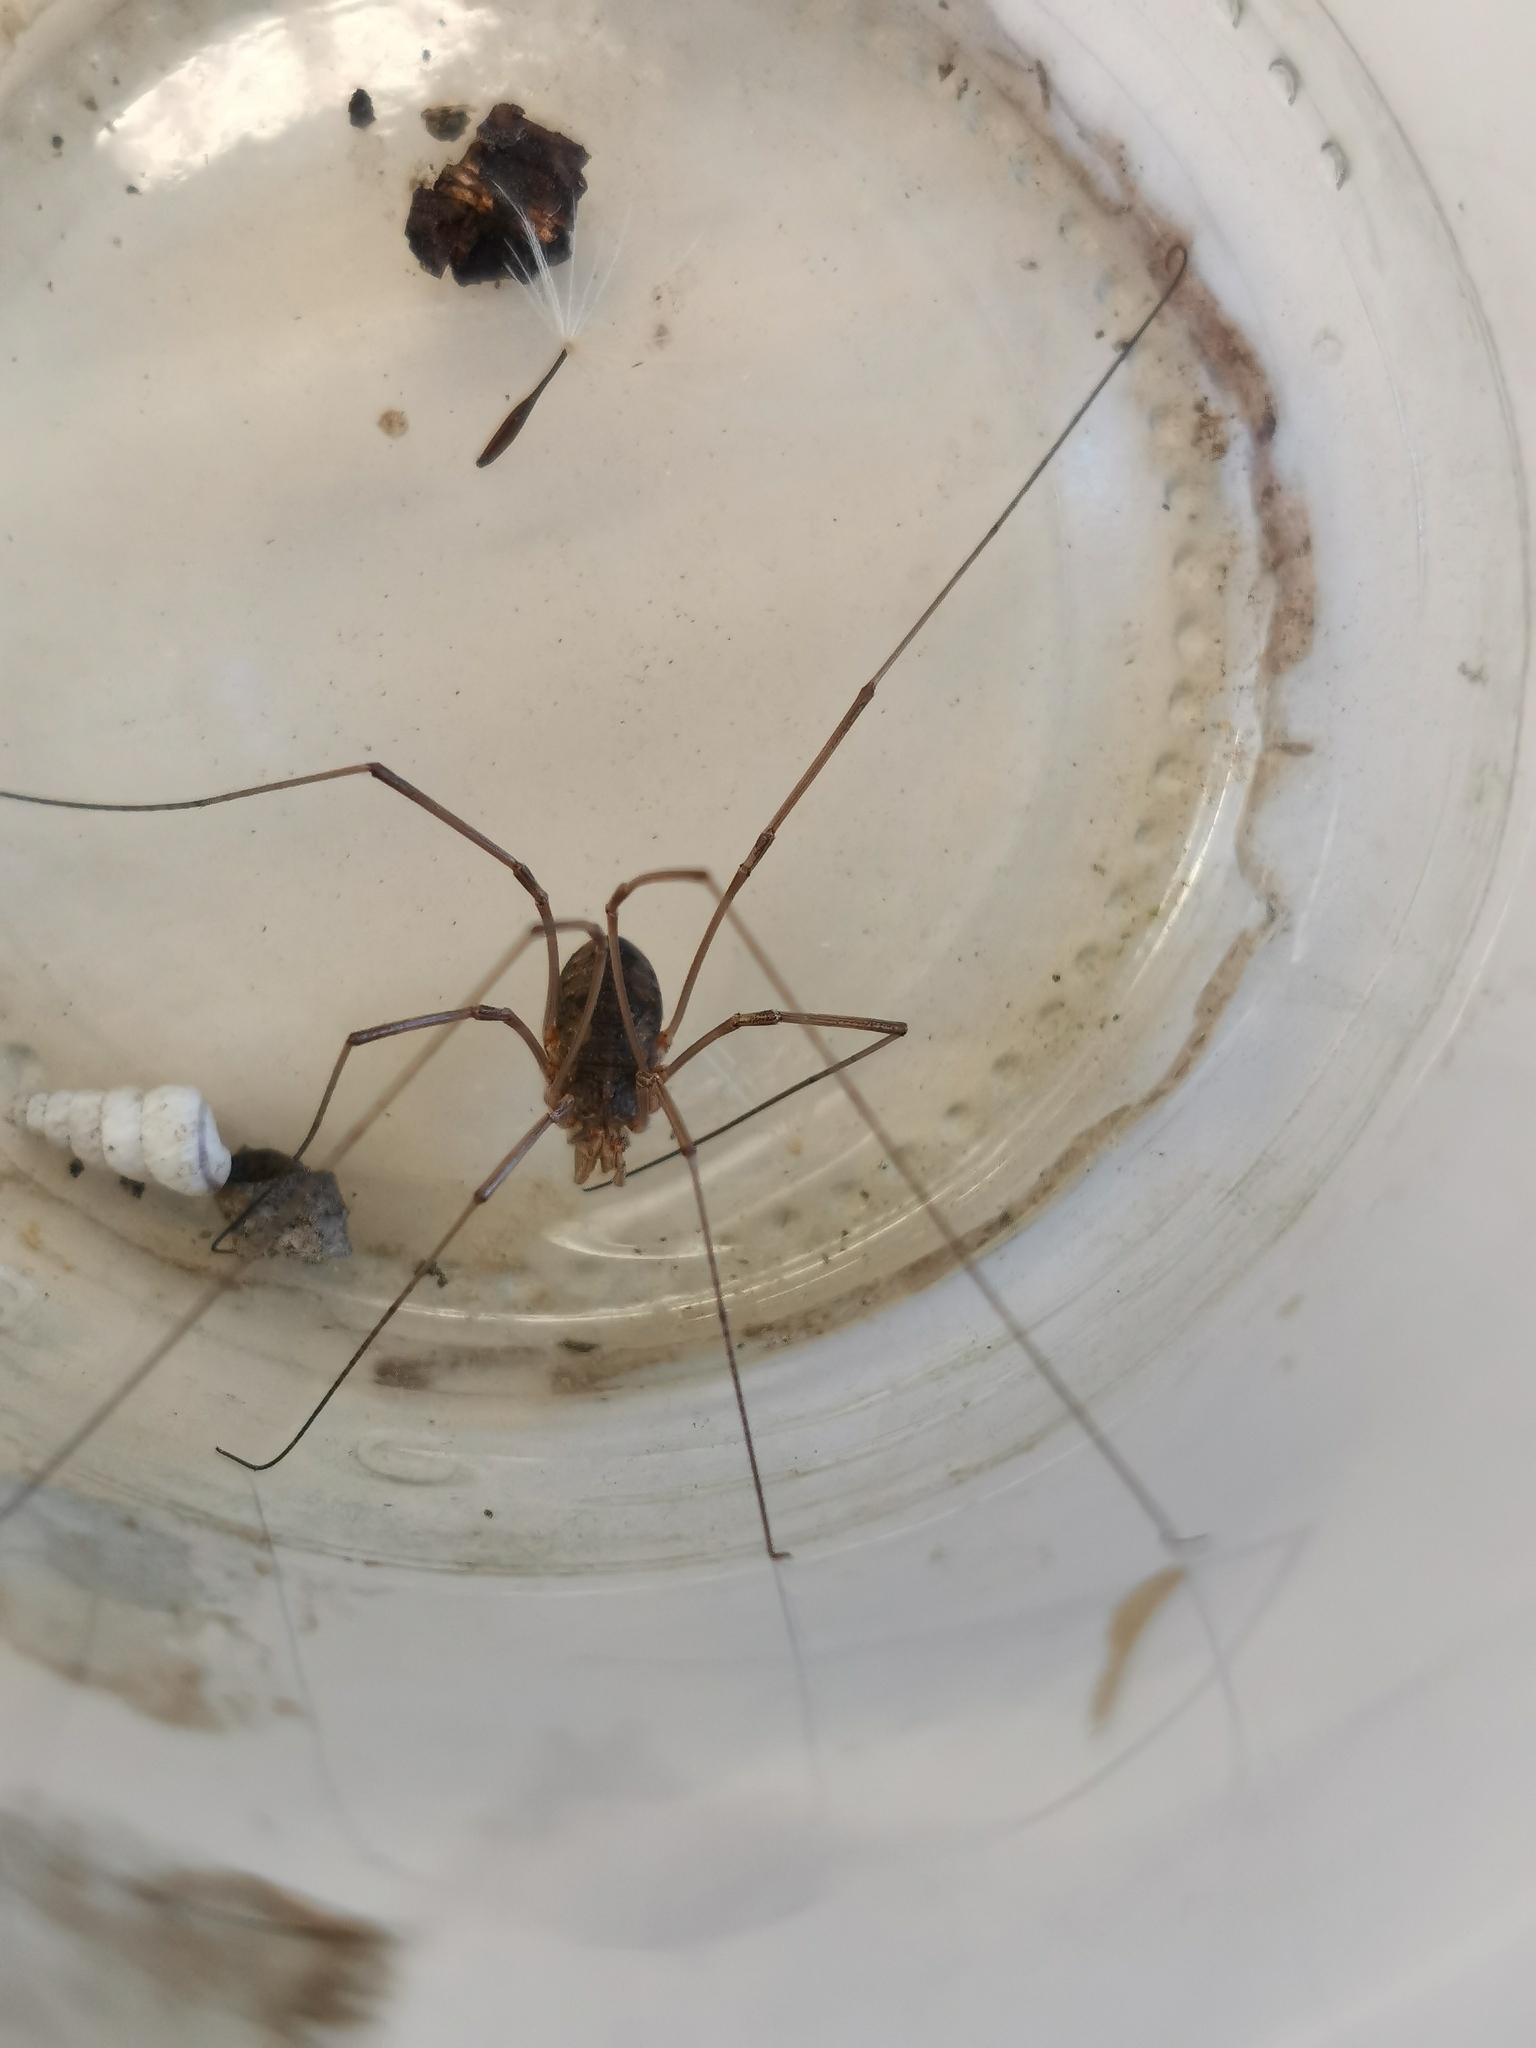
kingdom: Animalia
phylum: Arthropoda
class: Arachnida
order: Opiliones
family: Phalangiidae
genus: Phalangium
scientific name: Phalangium opilio
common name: Daddy longleg
